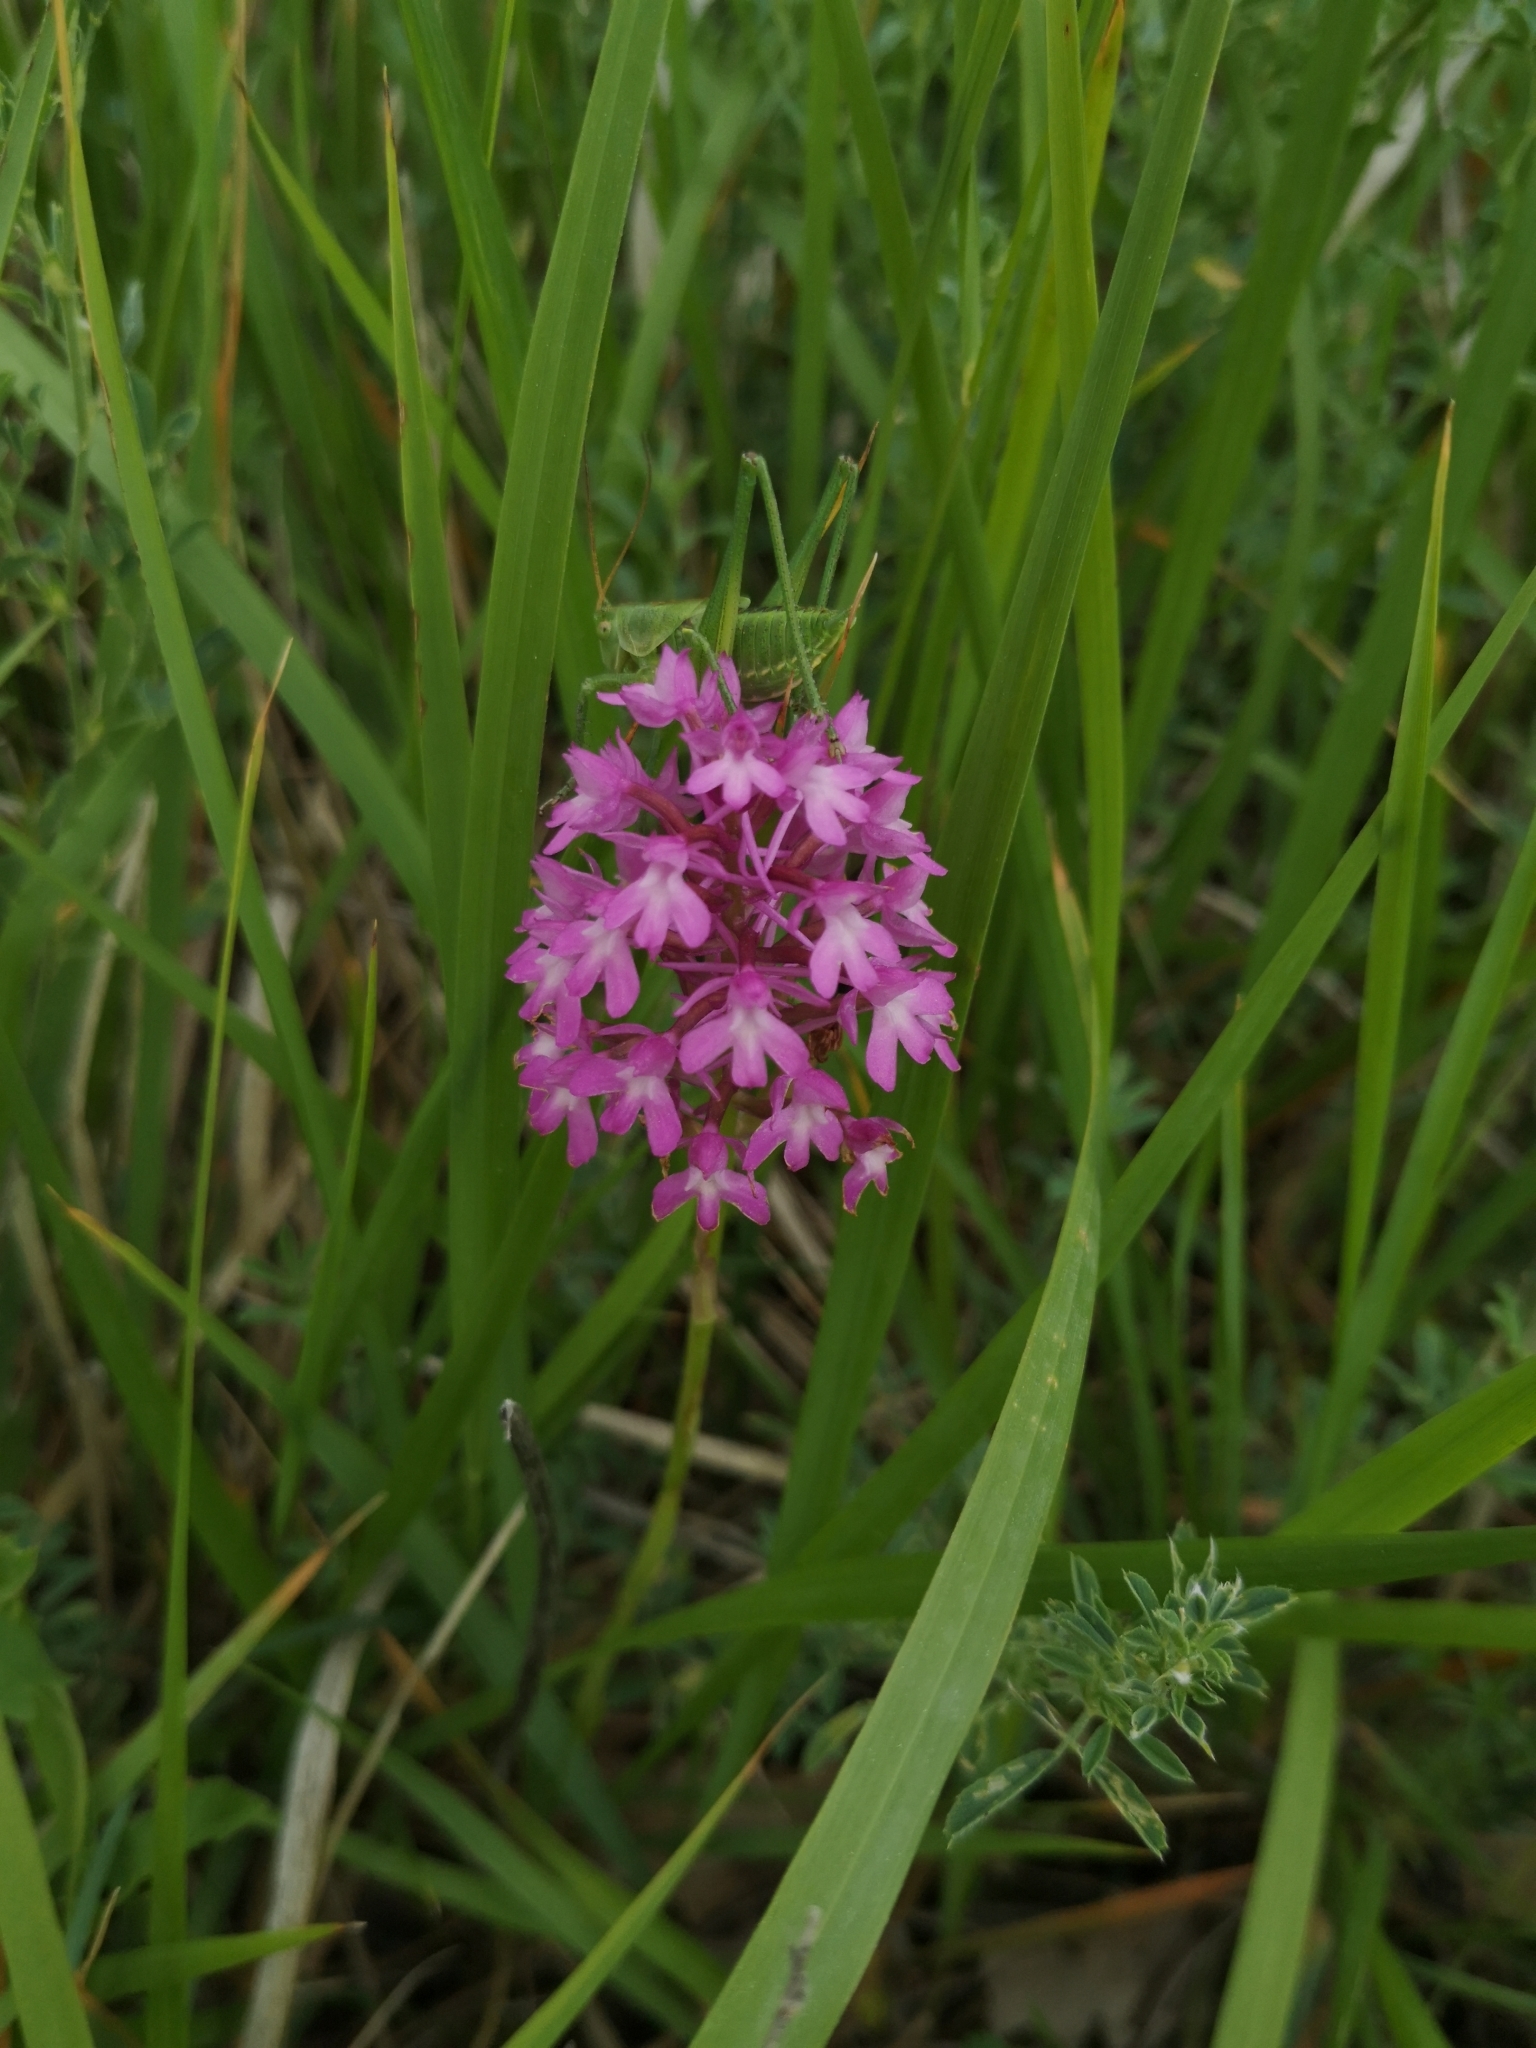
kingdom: Plantae
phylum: Tracheophyta
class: Liliopsida
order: Asparagales
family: Orchidaceae
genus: Anacamptis
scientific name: Anacamptis pyramidalis
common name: Pyramidal orchid
